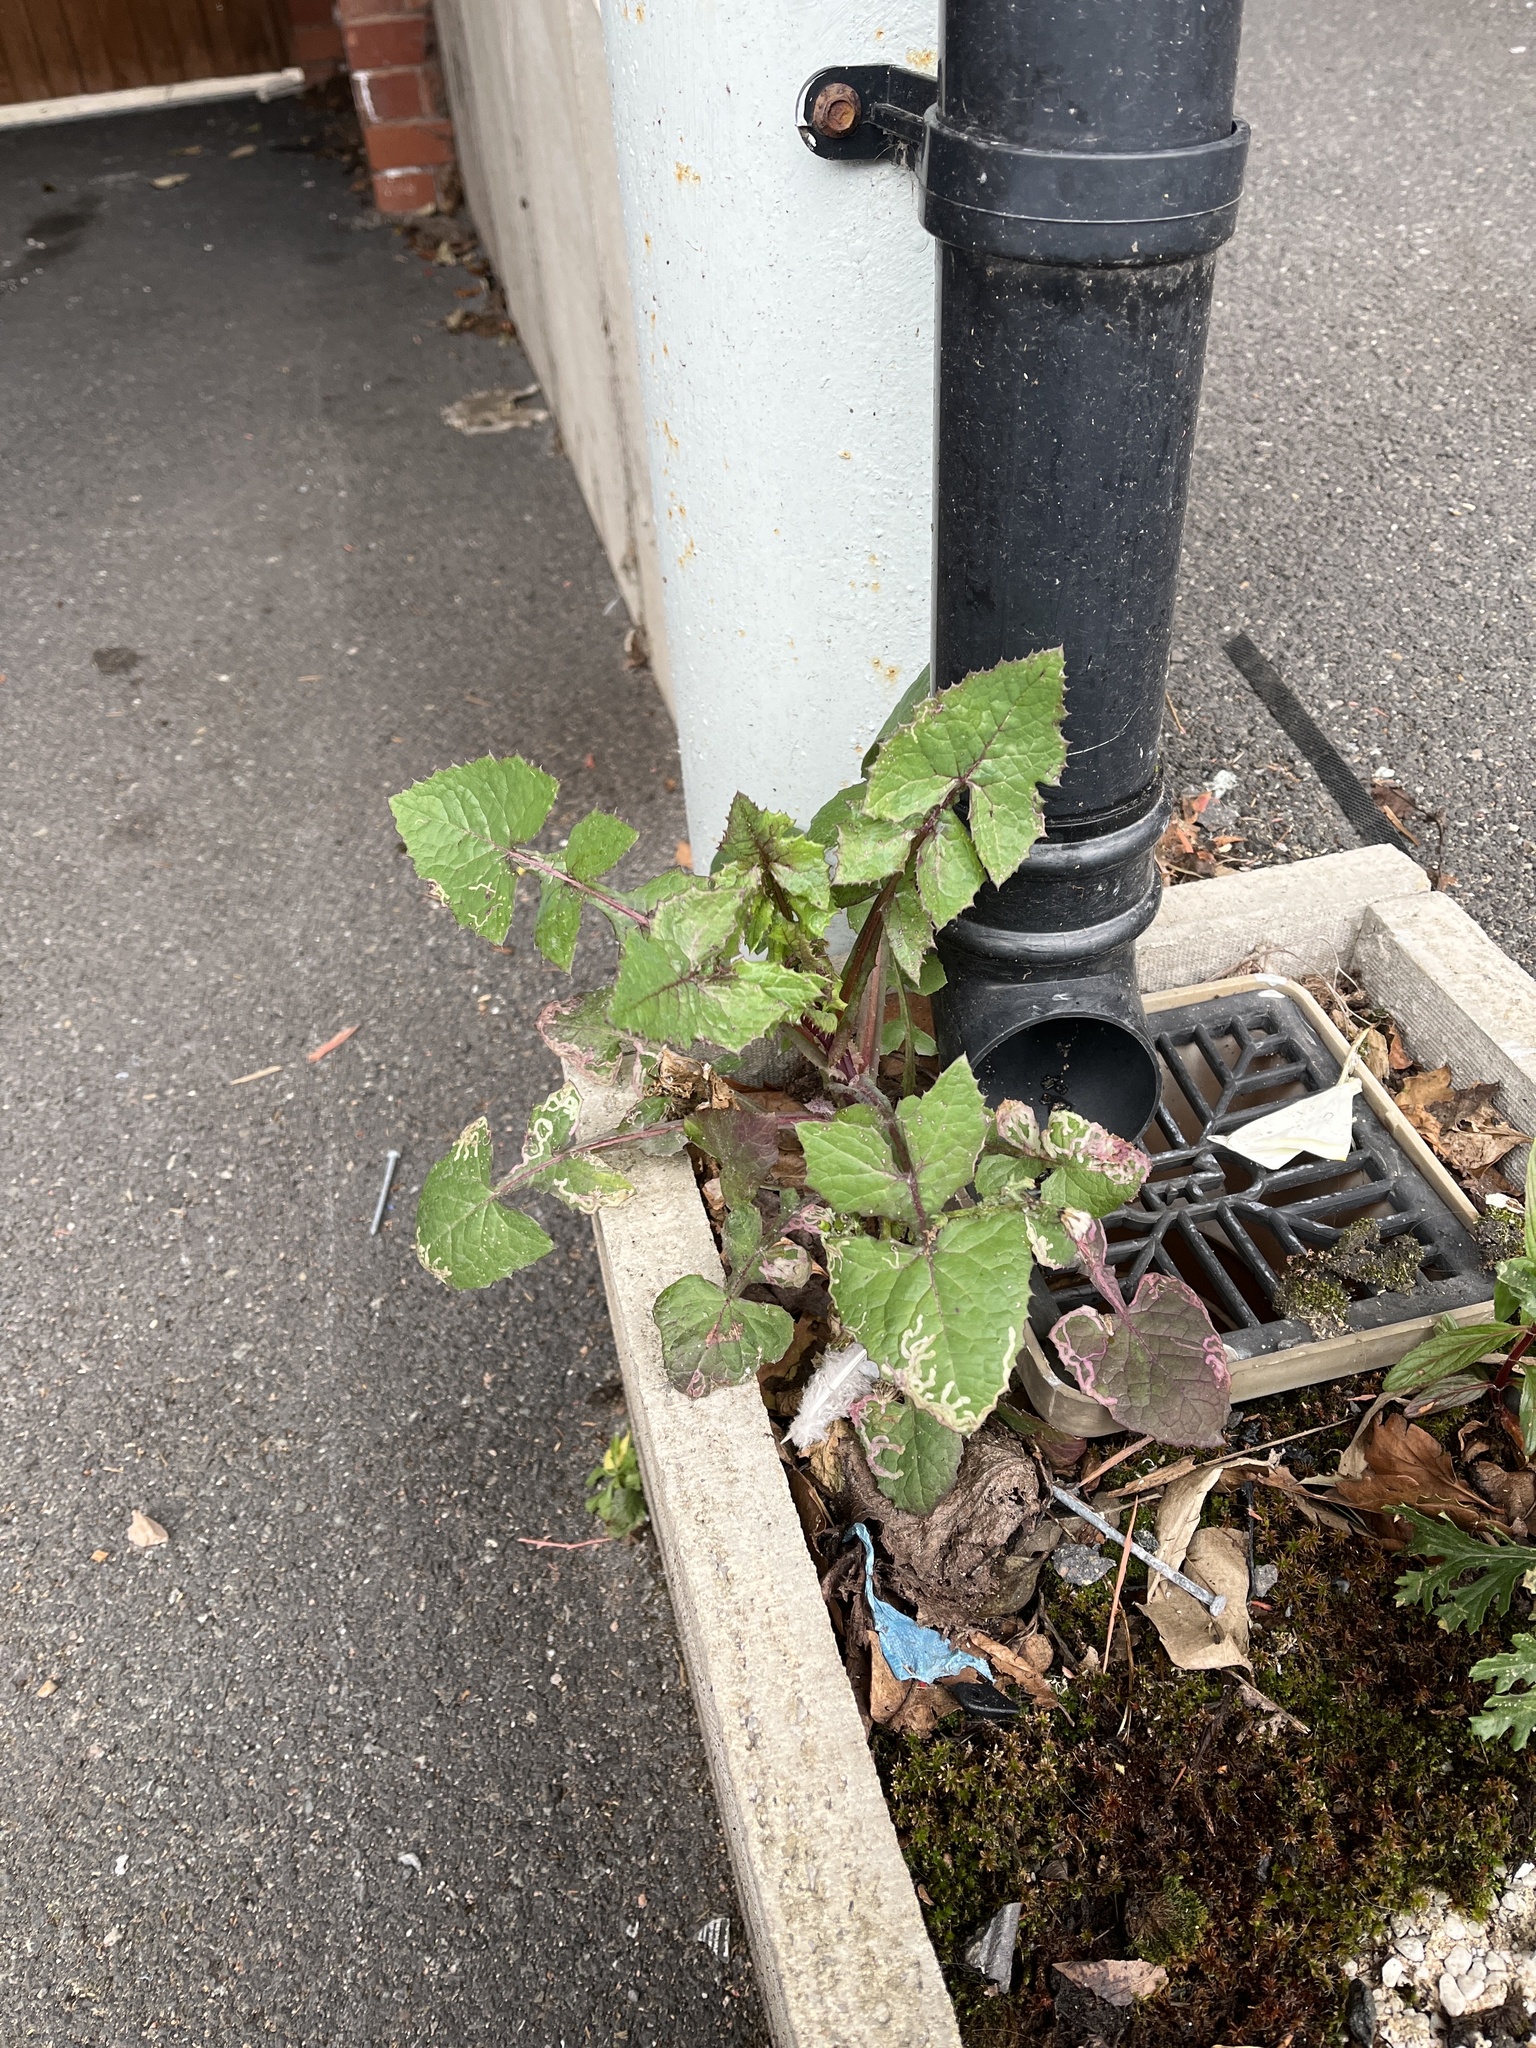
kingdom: Plantae
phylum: Tracheophyta
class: Magnoliopsida
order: Asterales
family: Asteraceae
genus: Sonchus
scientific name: Sonchus oleraceus
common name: Common sowthistle
